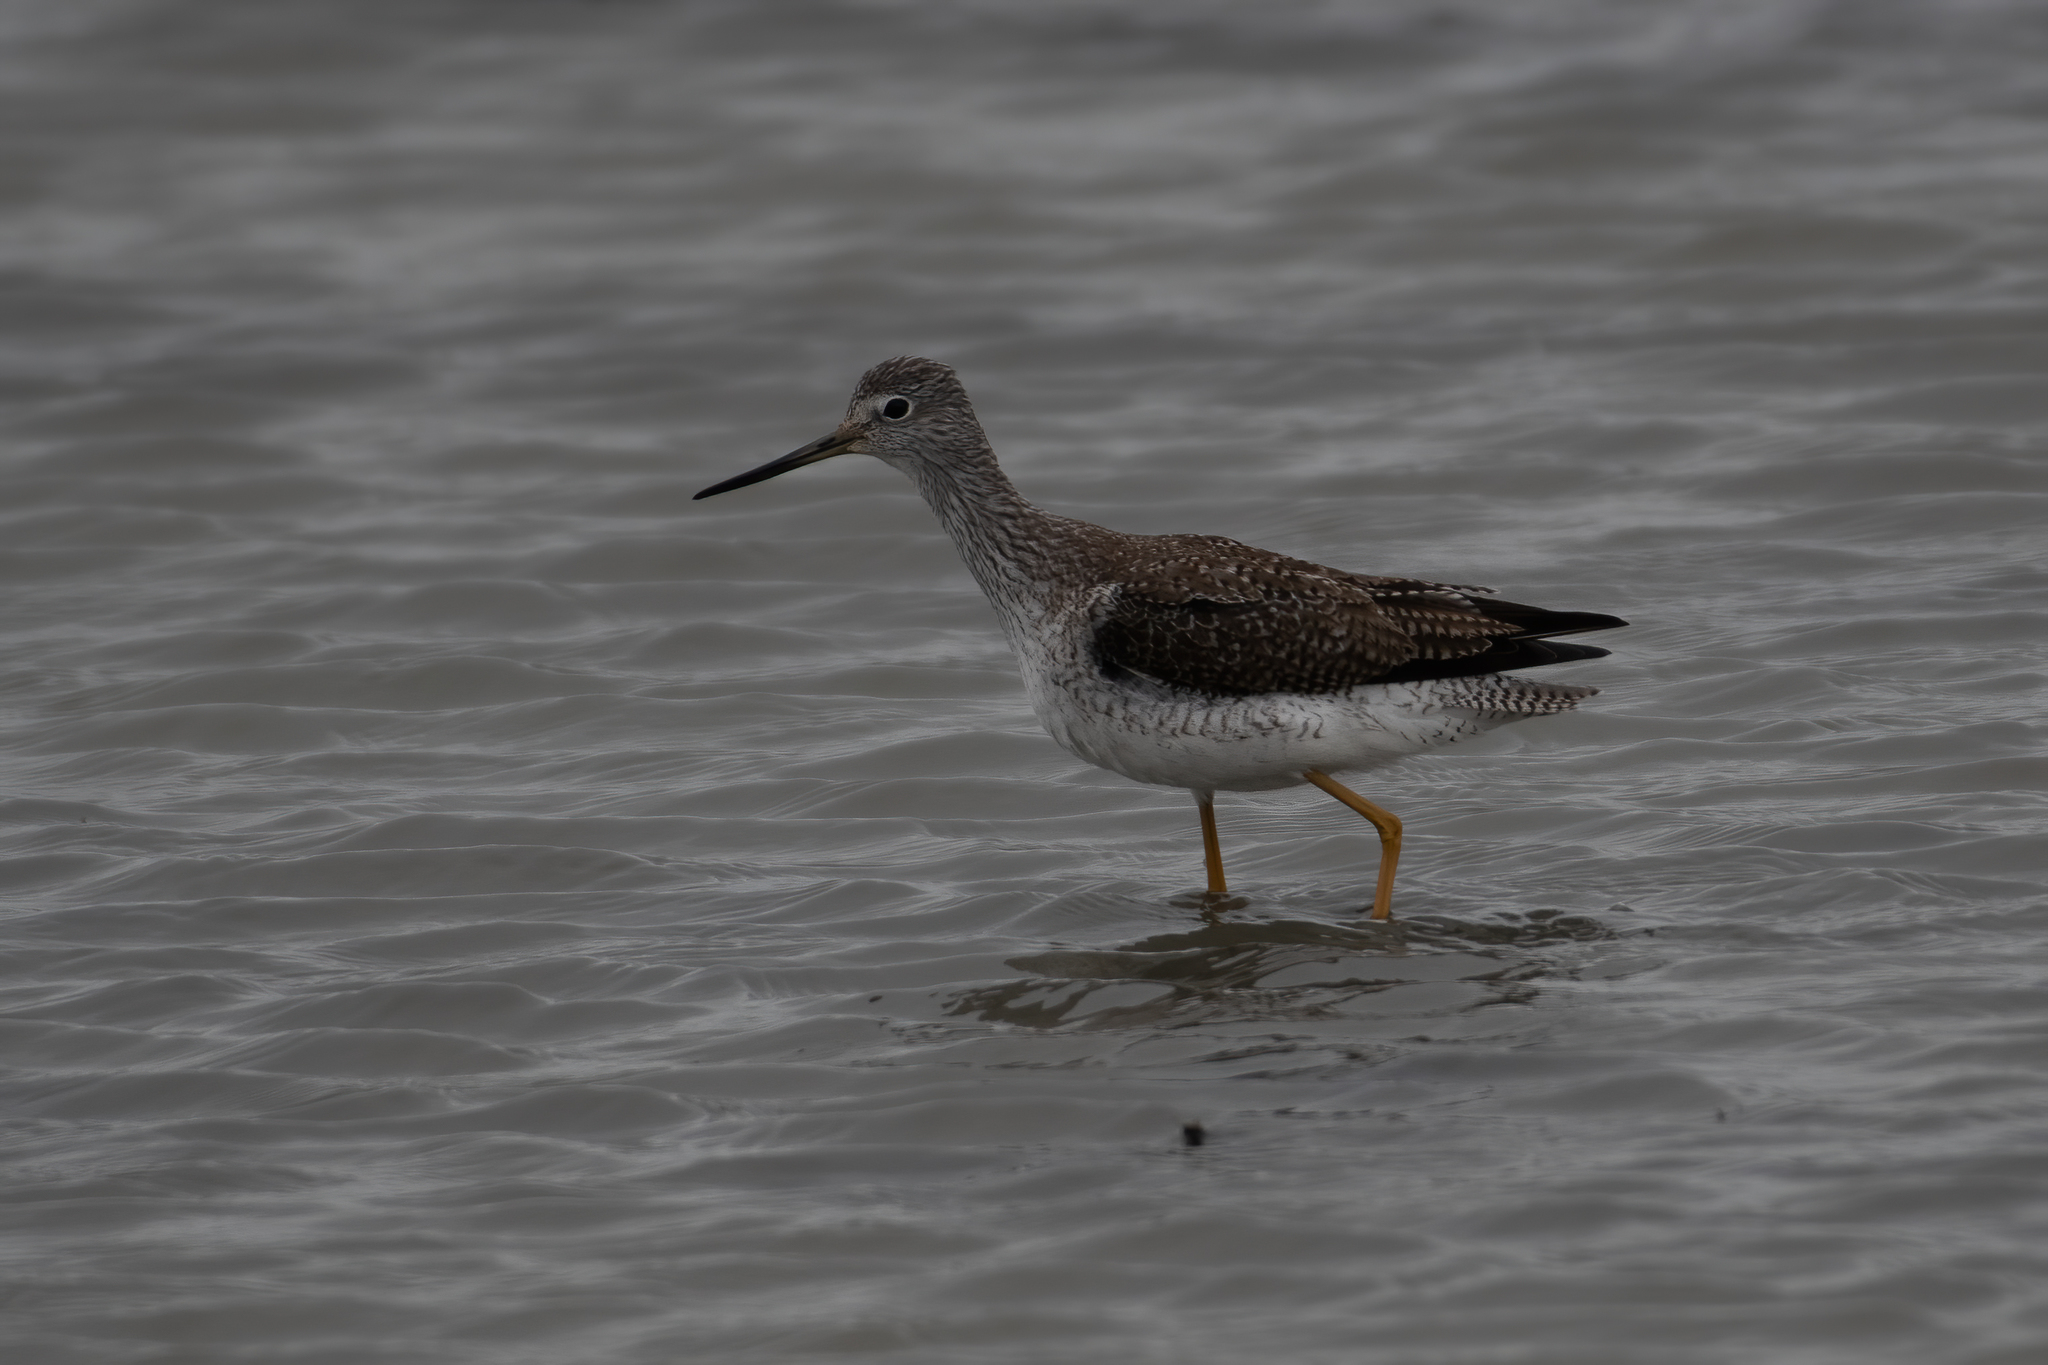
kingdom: Animalia
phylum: Chordata
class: Aves
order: Charadriiformes
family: Scolopacidae
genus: Tringa
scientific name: Tringa melanoleuca
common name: Greater yellowlegs
